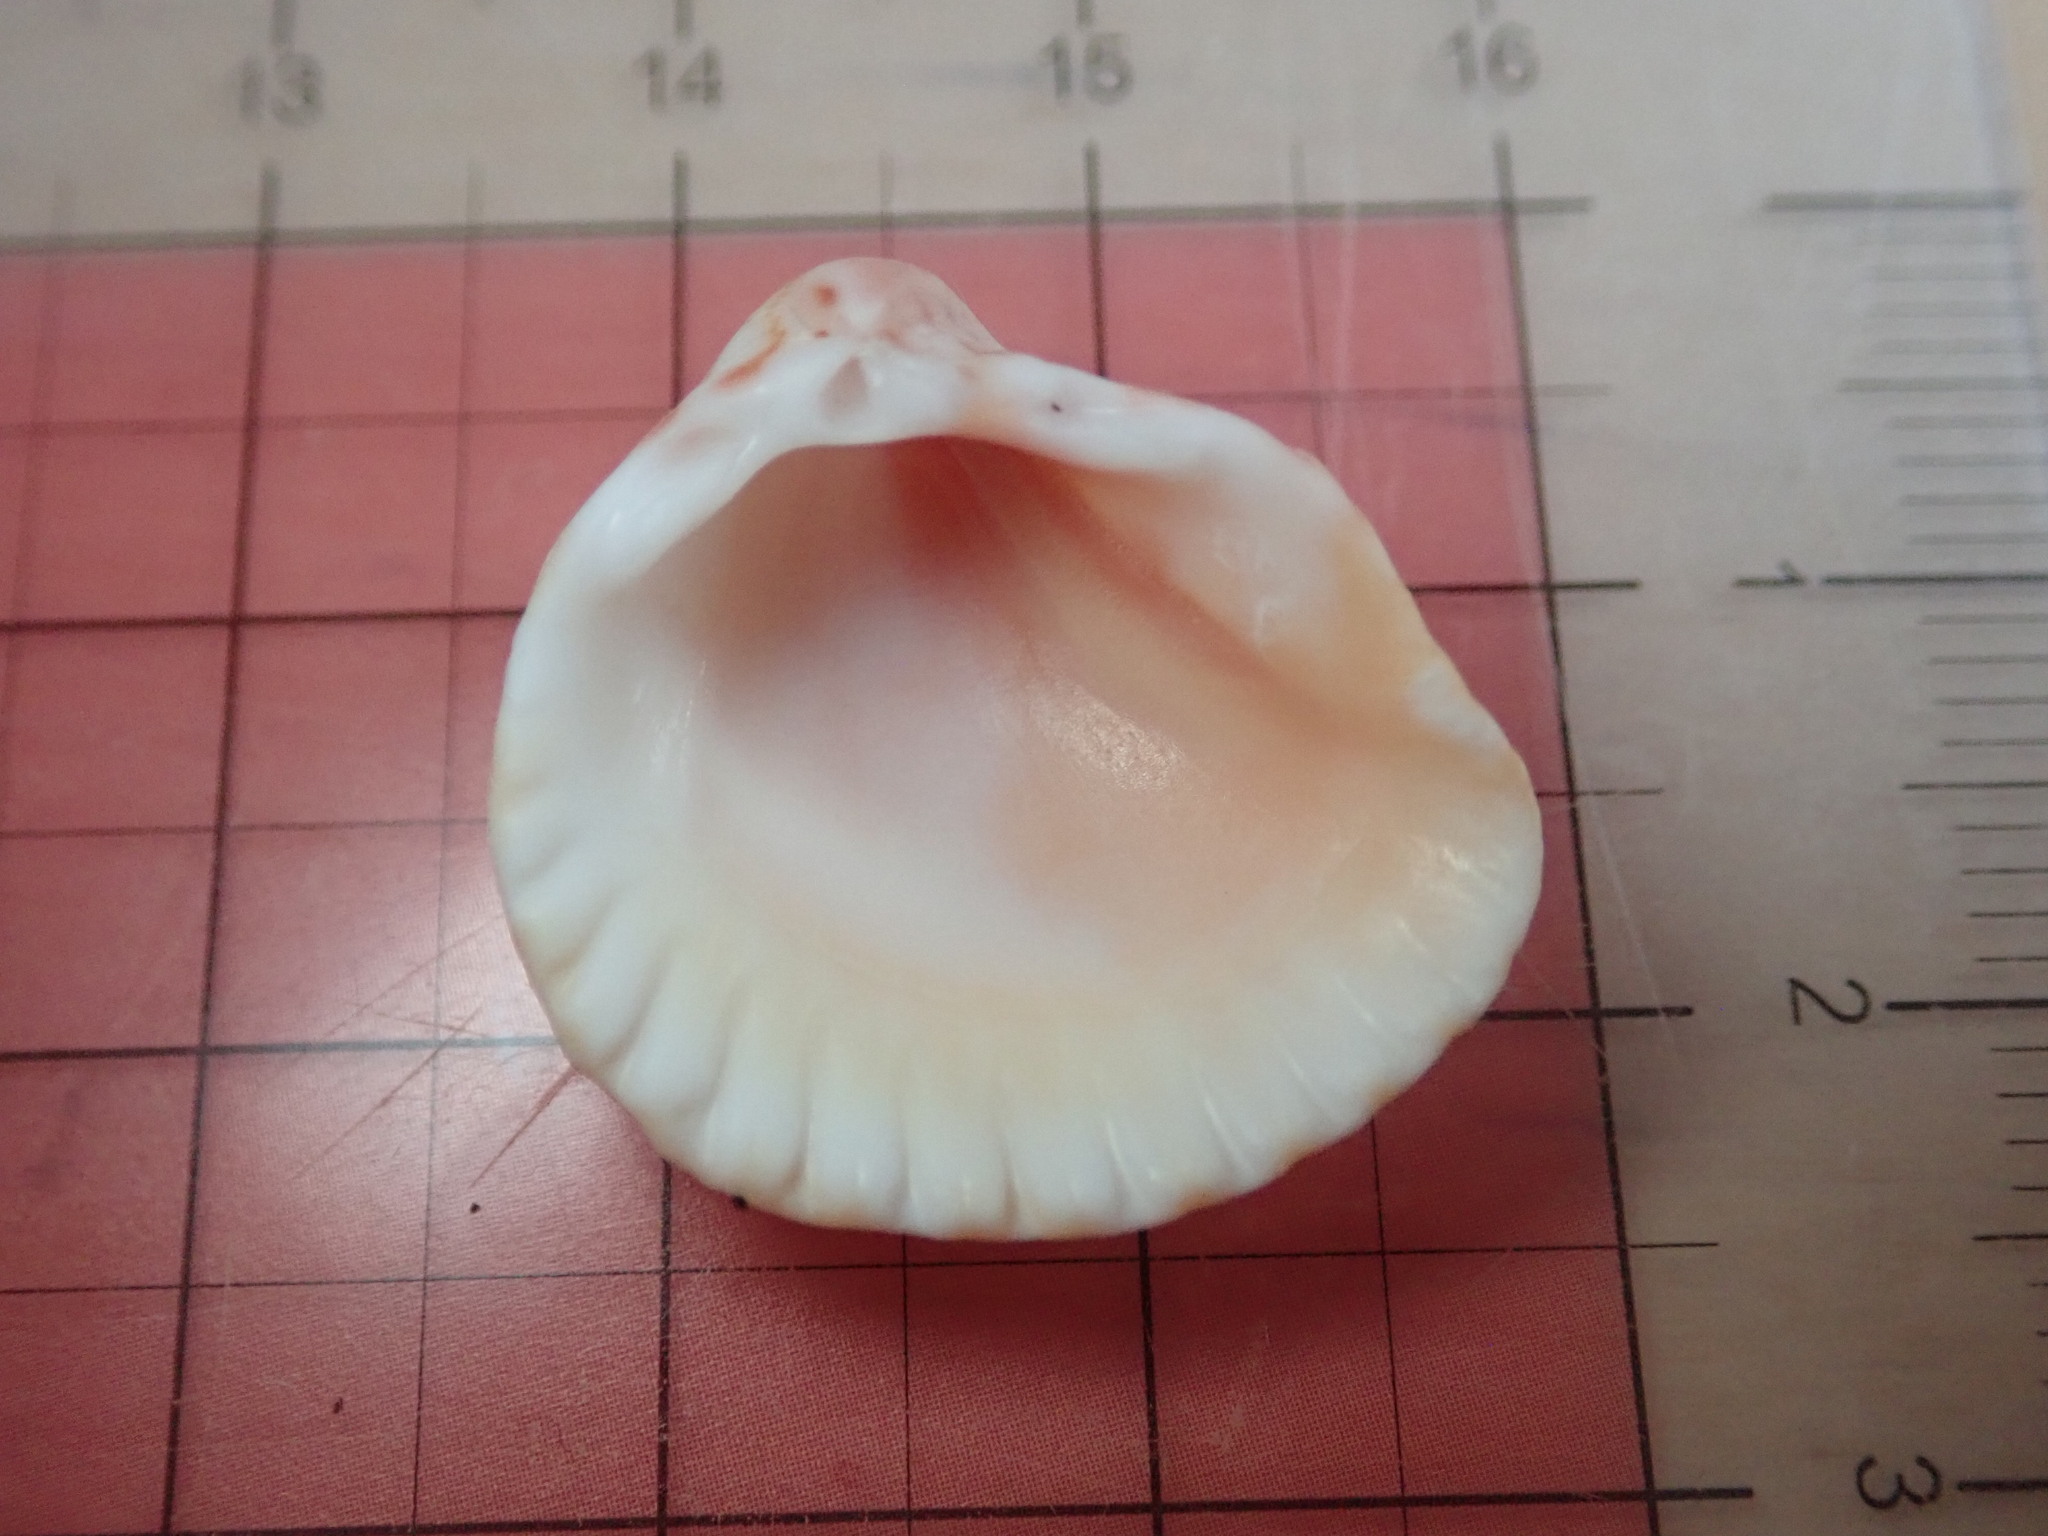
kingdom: Animalia
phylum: Mollusca
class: Bivalvia
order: Cardiida
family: Cardiidae
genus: Americardia
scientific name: Americardia biangulata
